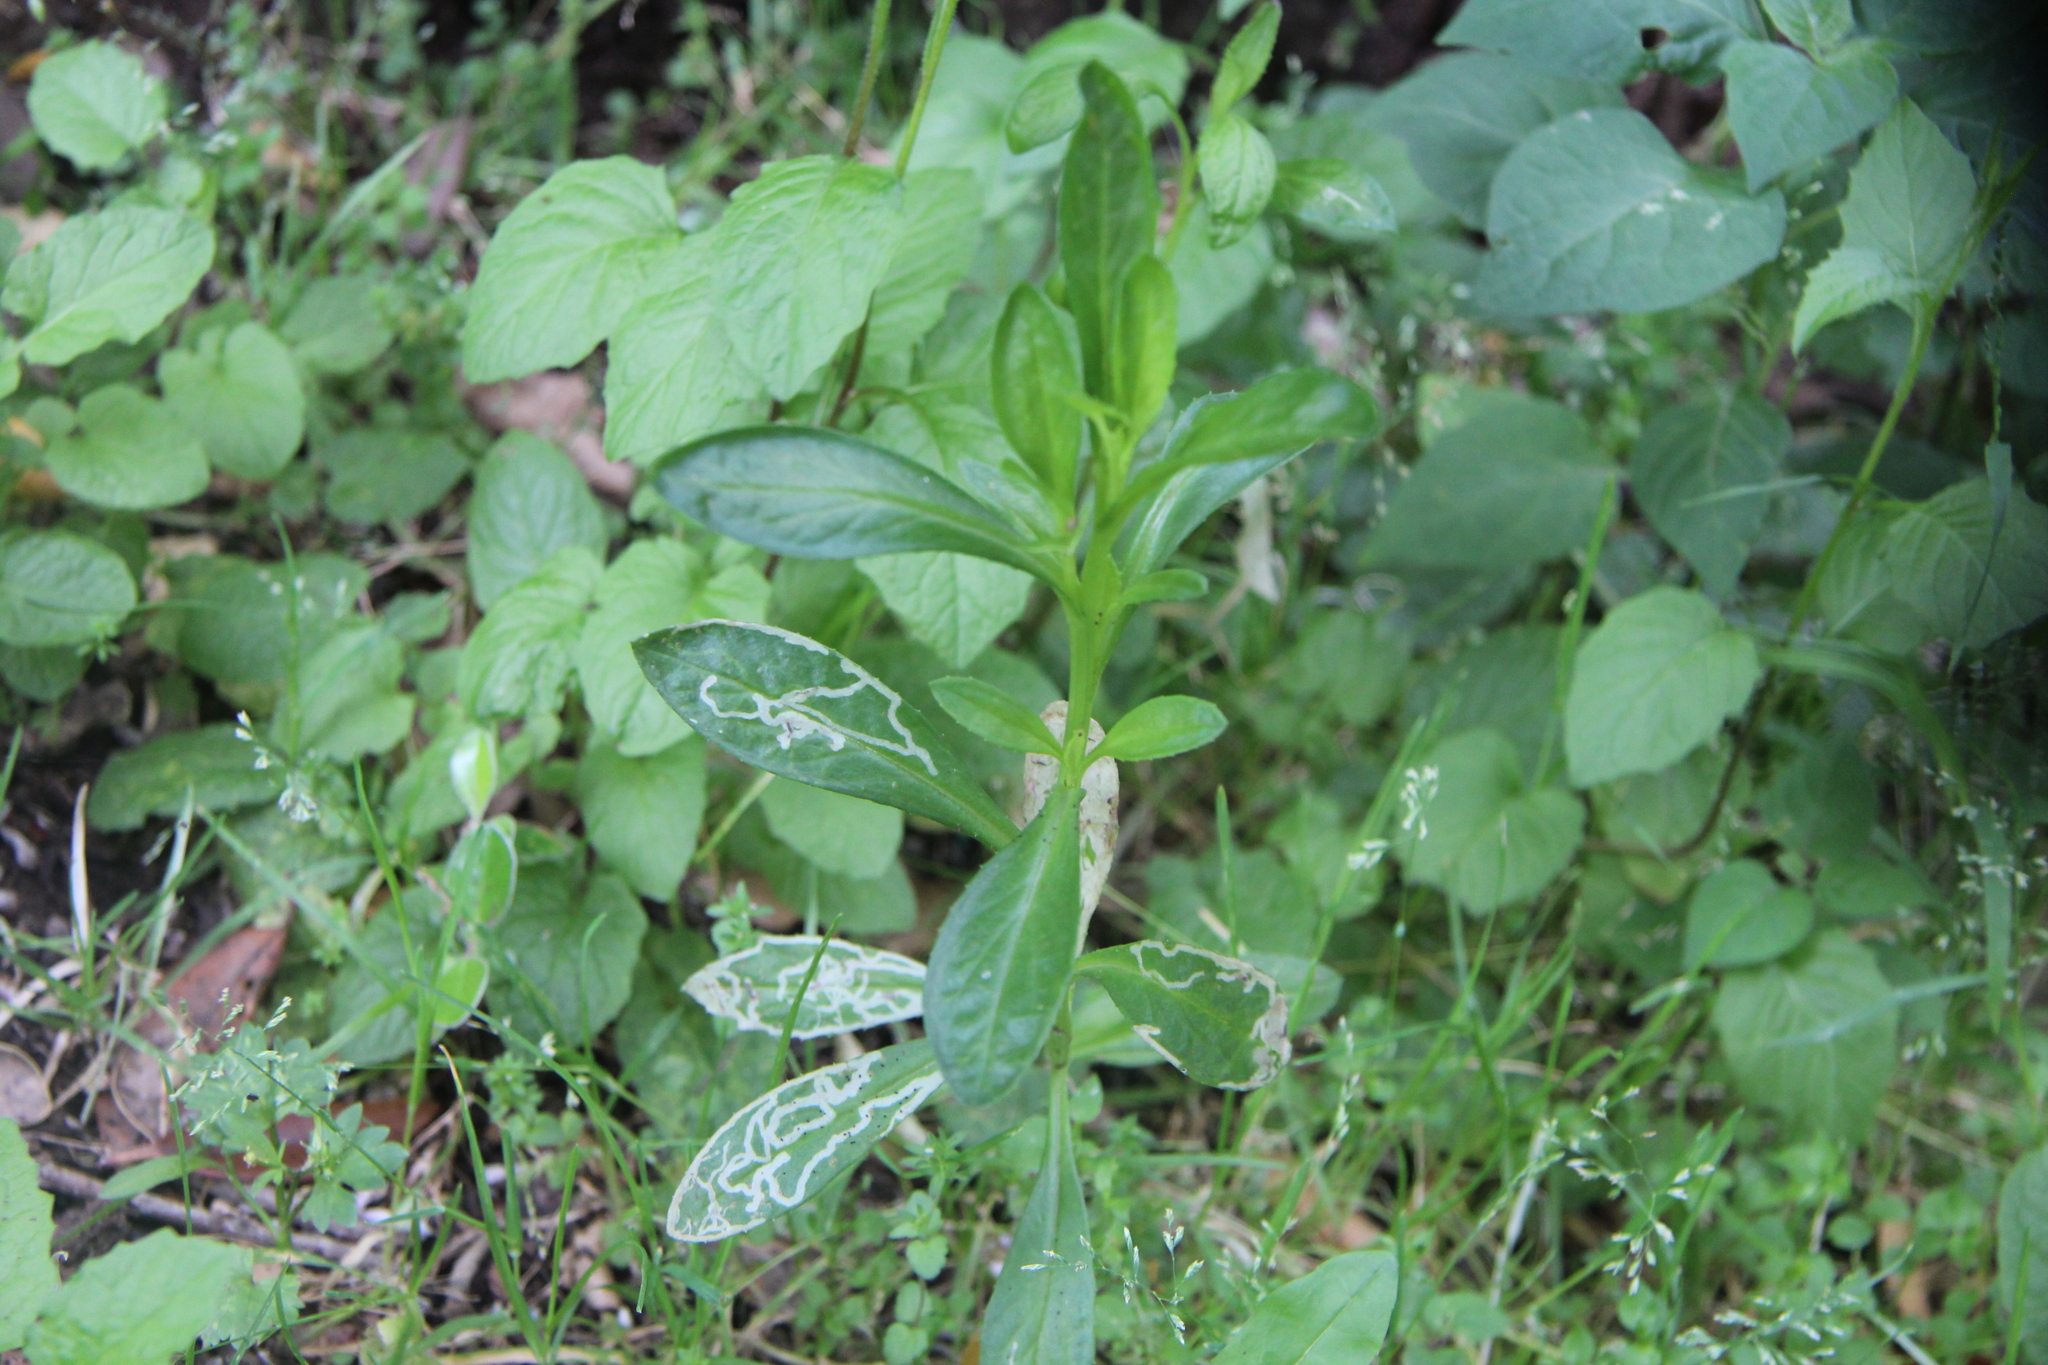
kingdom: Plantae
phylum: Tracheophyta
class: Magnoliopsida
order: Asterales
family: Asteraceae
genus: Senecio
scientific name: Senecio skirrhodon
